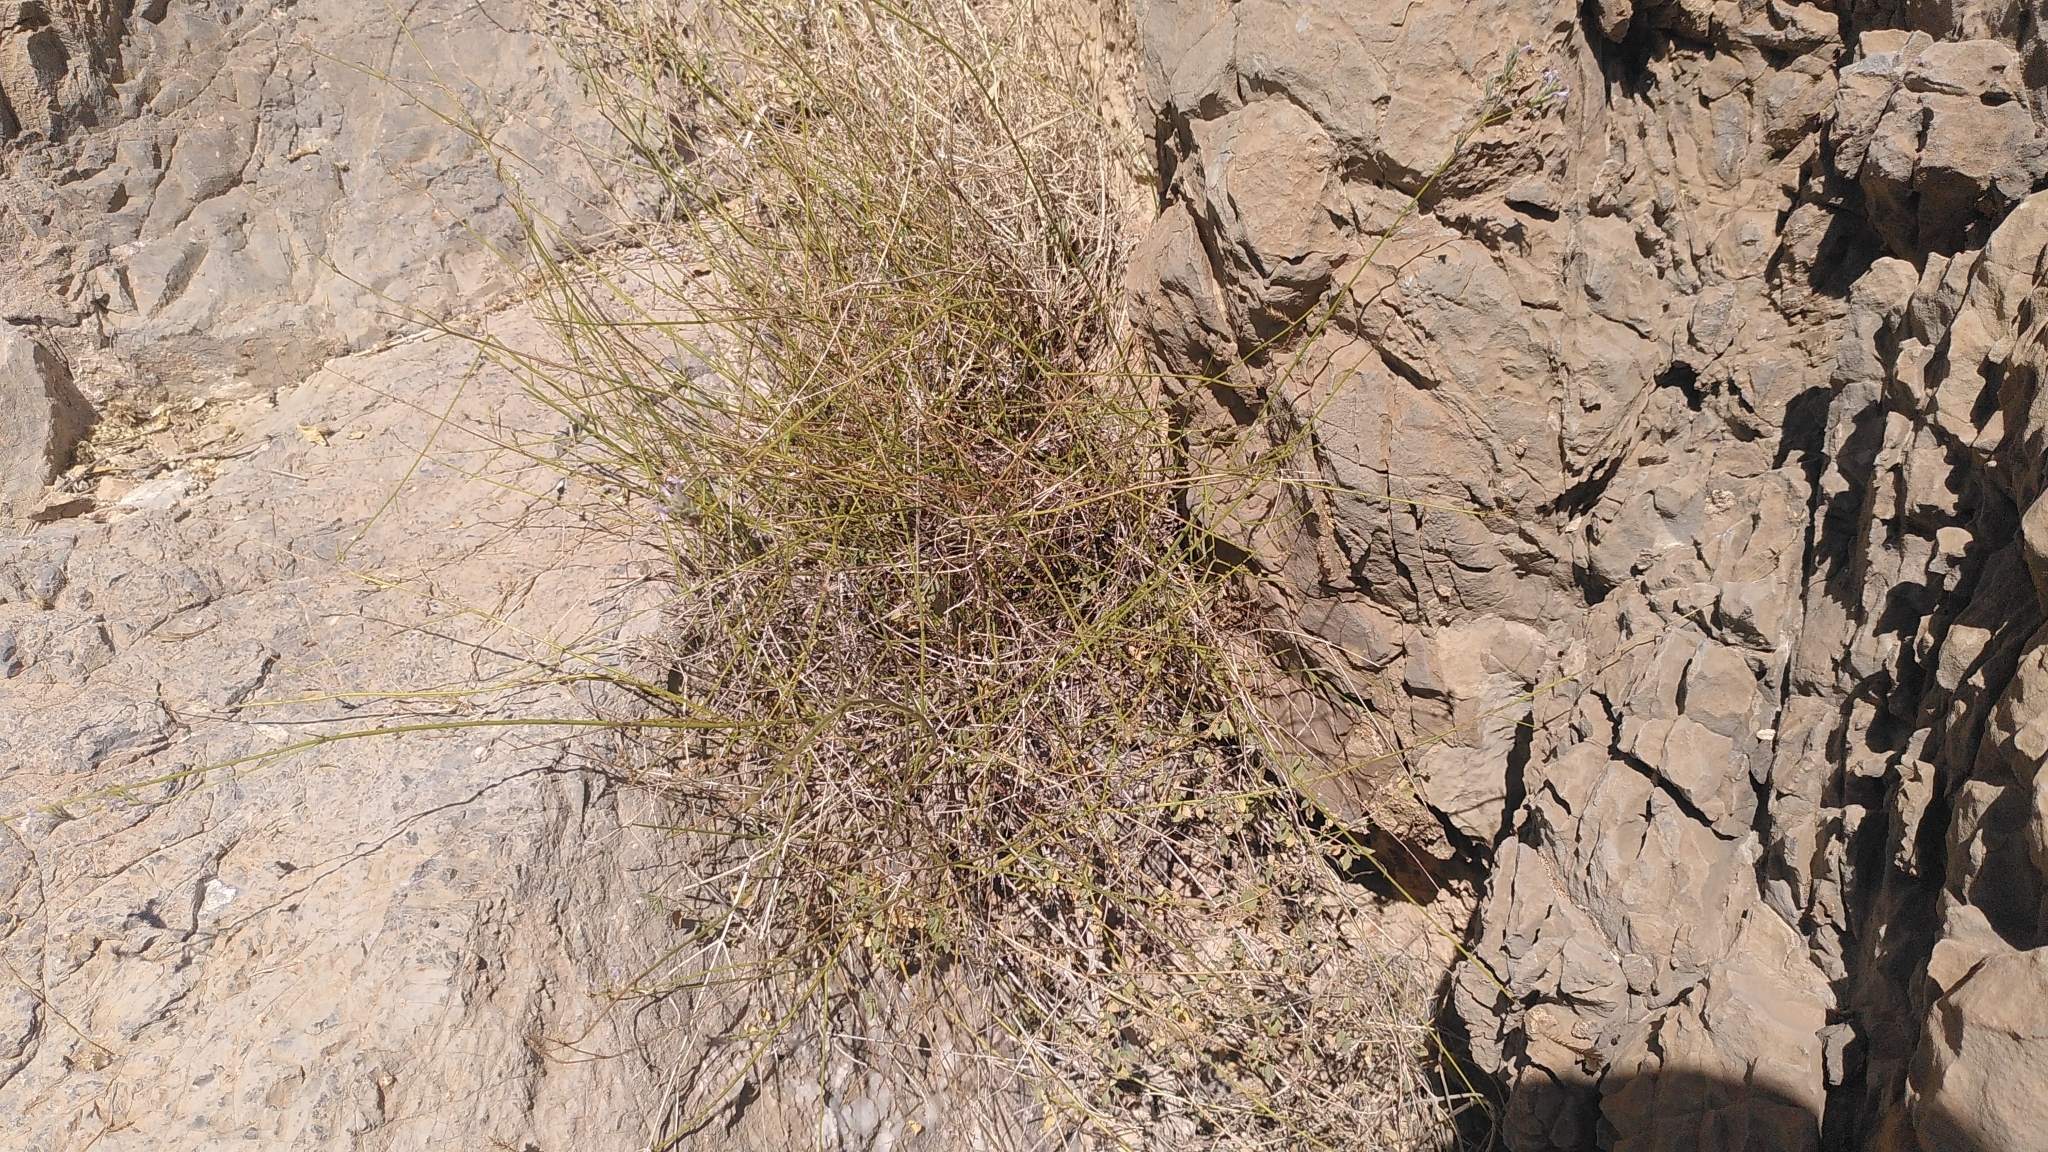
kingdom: Plantae
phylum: Tracheophyta
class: Magnoliopsida
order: Lamiales
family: Lamiaceae
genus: Lavandula
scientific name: Lavandula subnuda
